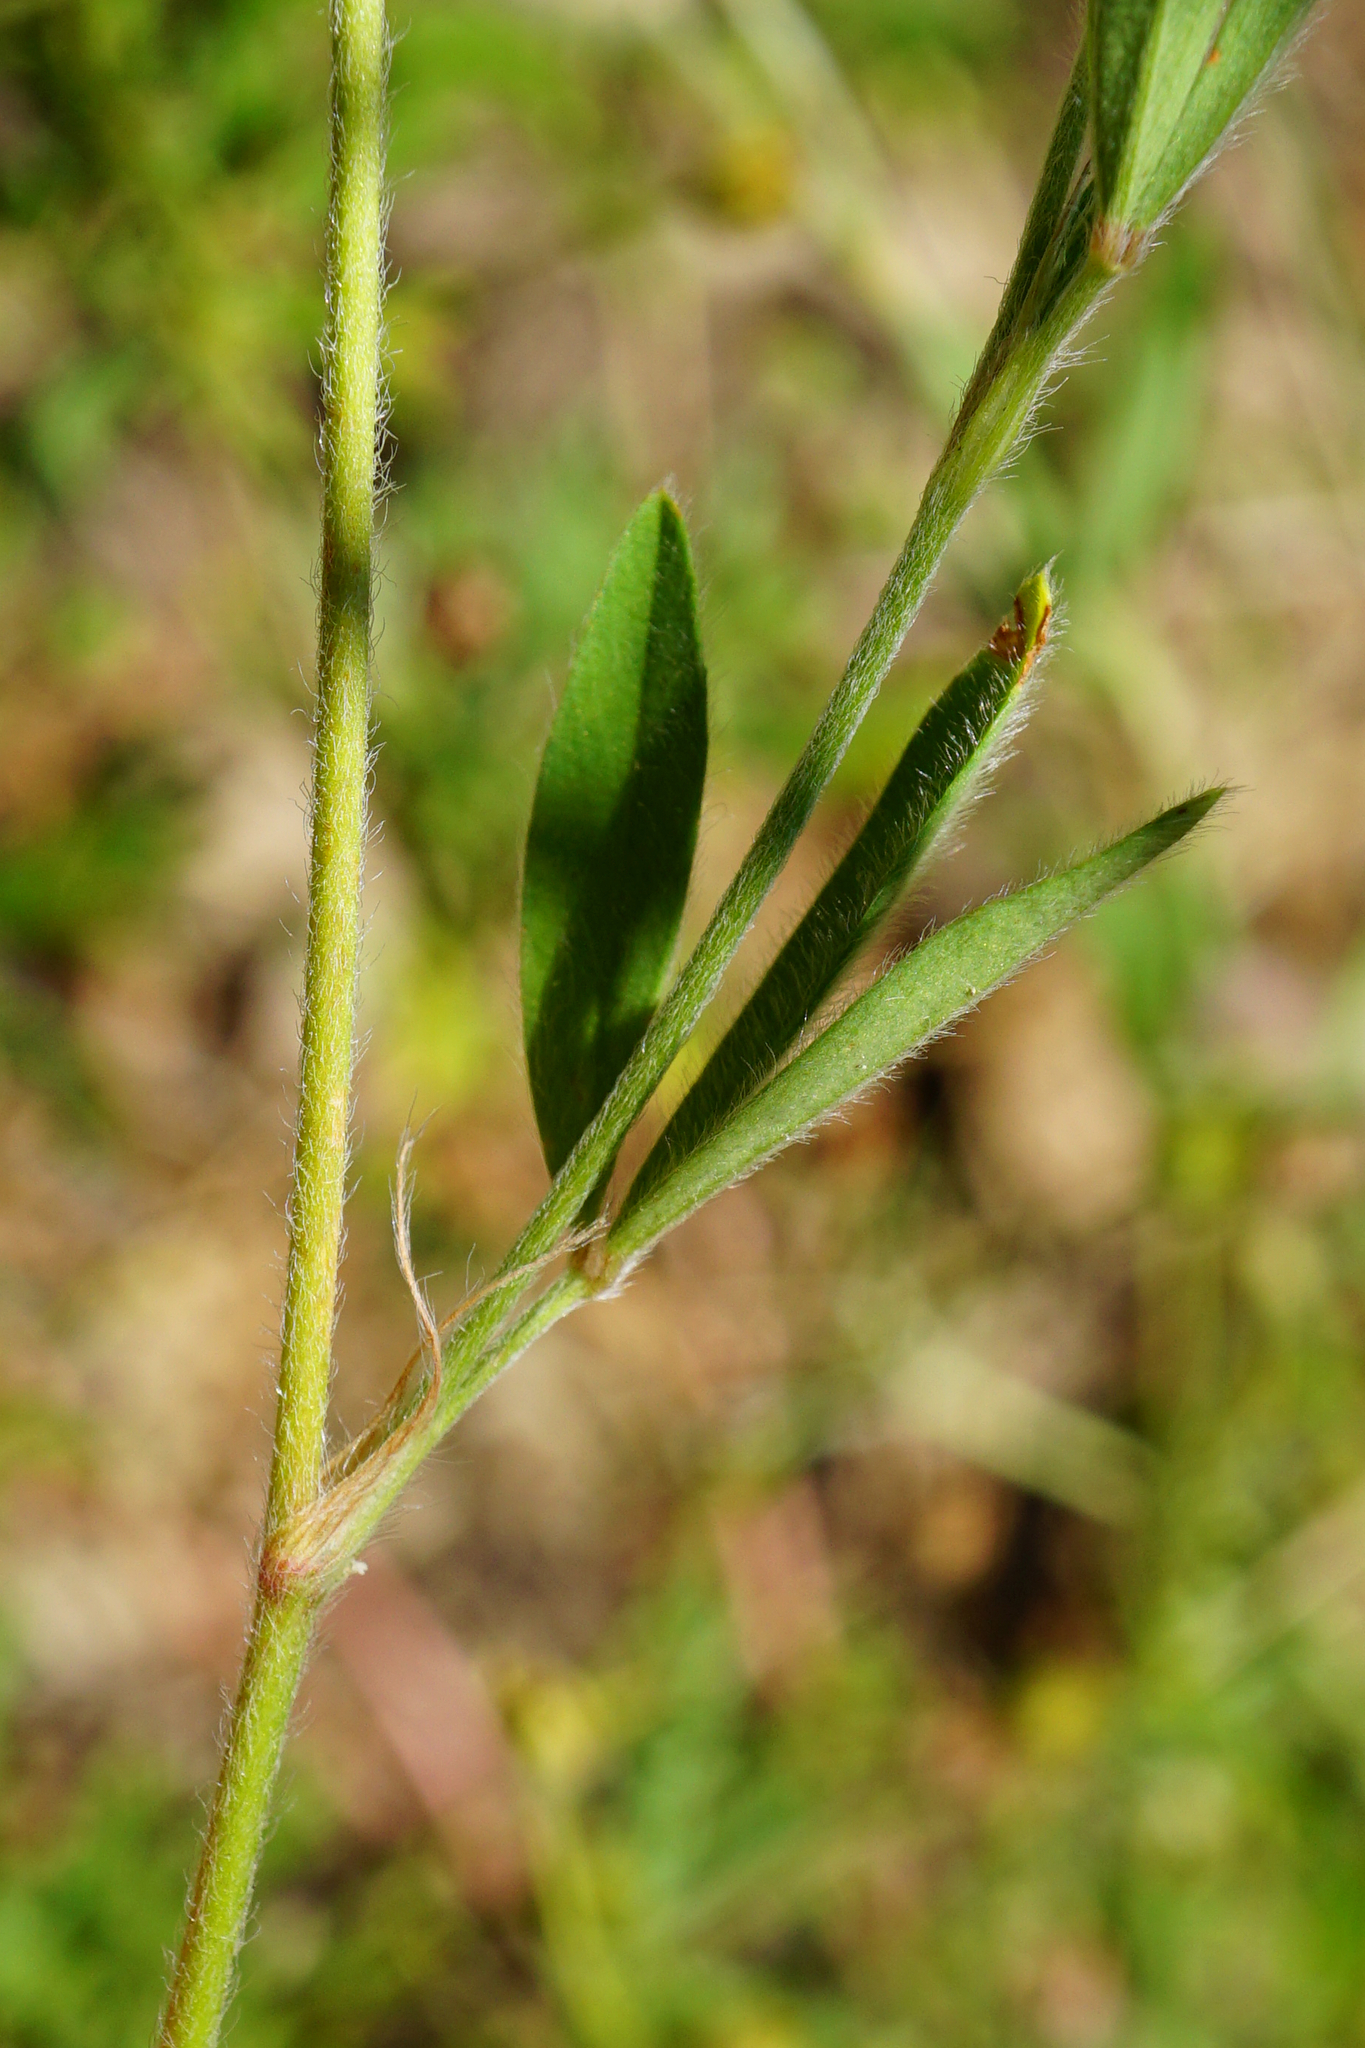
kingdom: Plantae
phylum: Tracheophyta
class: Magnoliopsida
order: Fabales
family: Fabaceae
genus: Trifolium
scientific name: Trifolium arvense
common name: Hare's-foot clover
